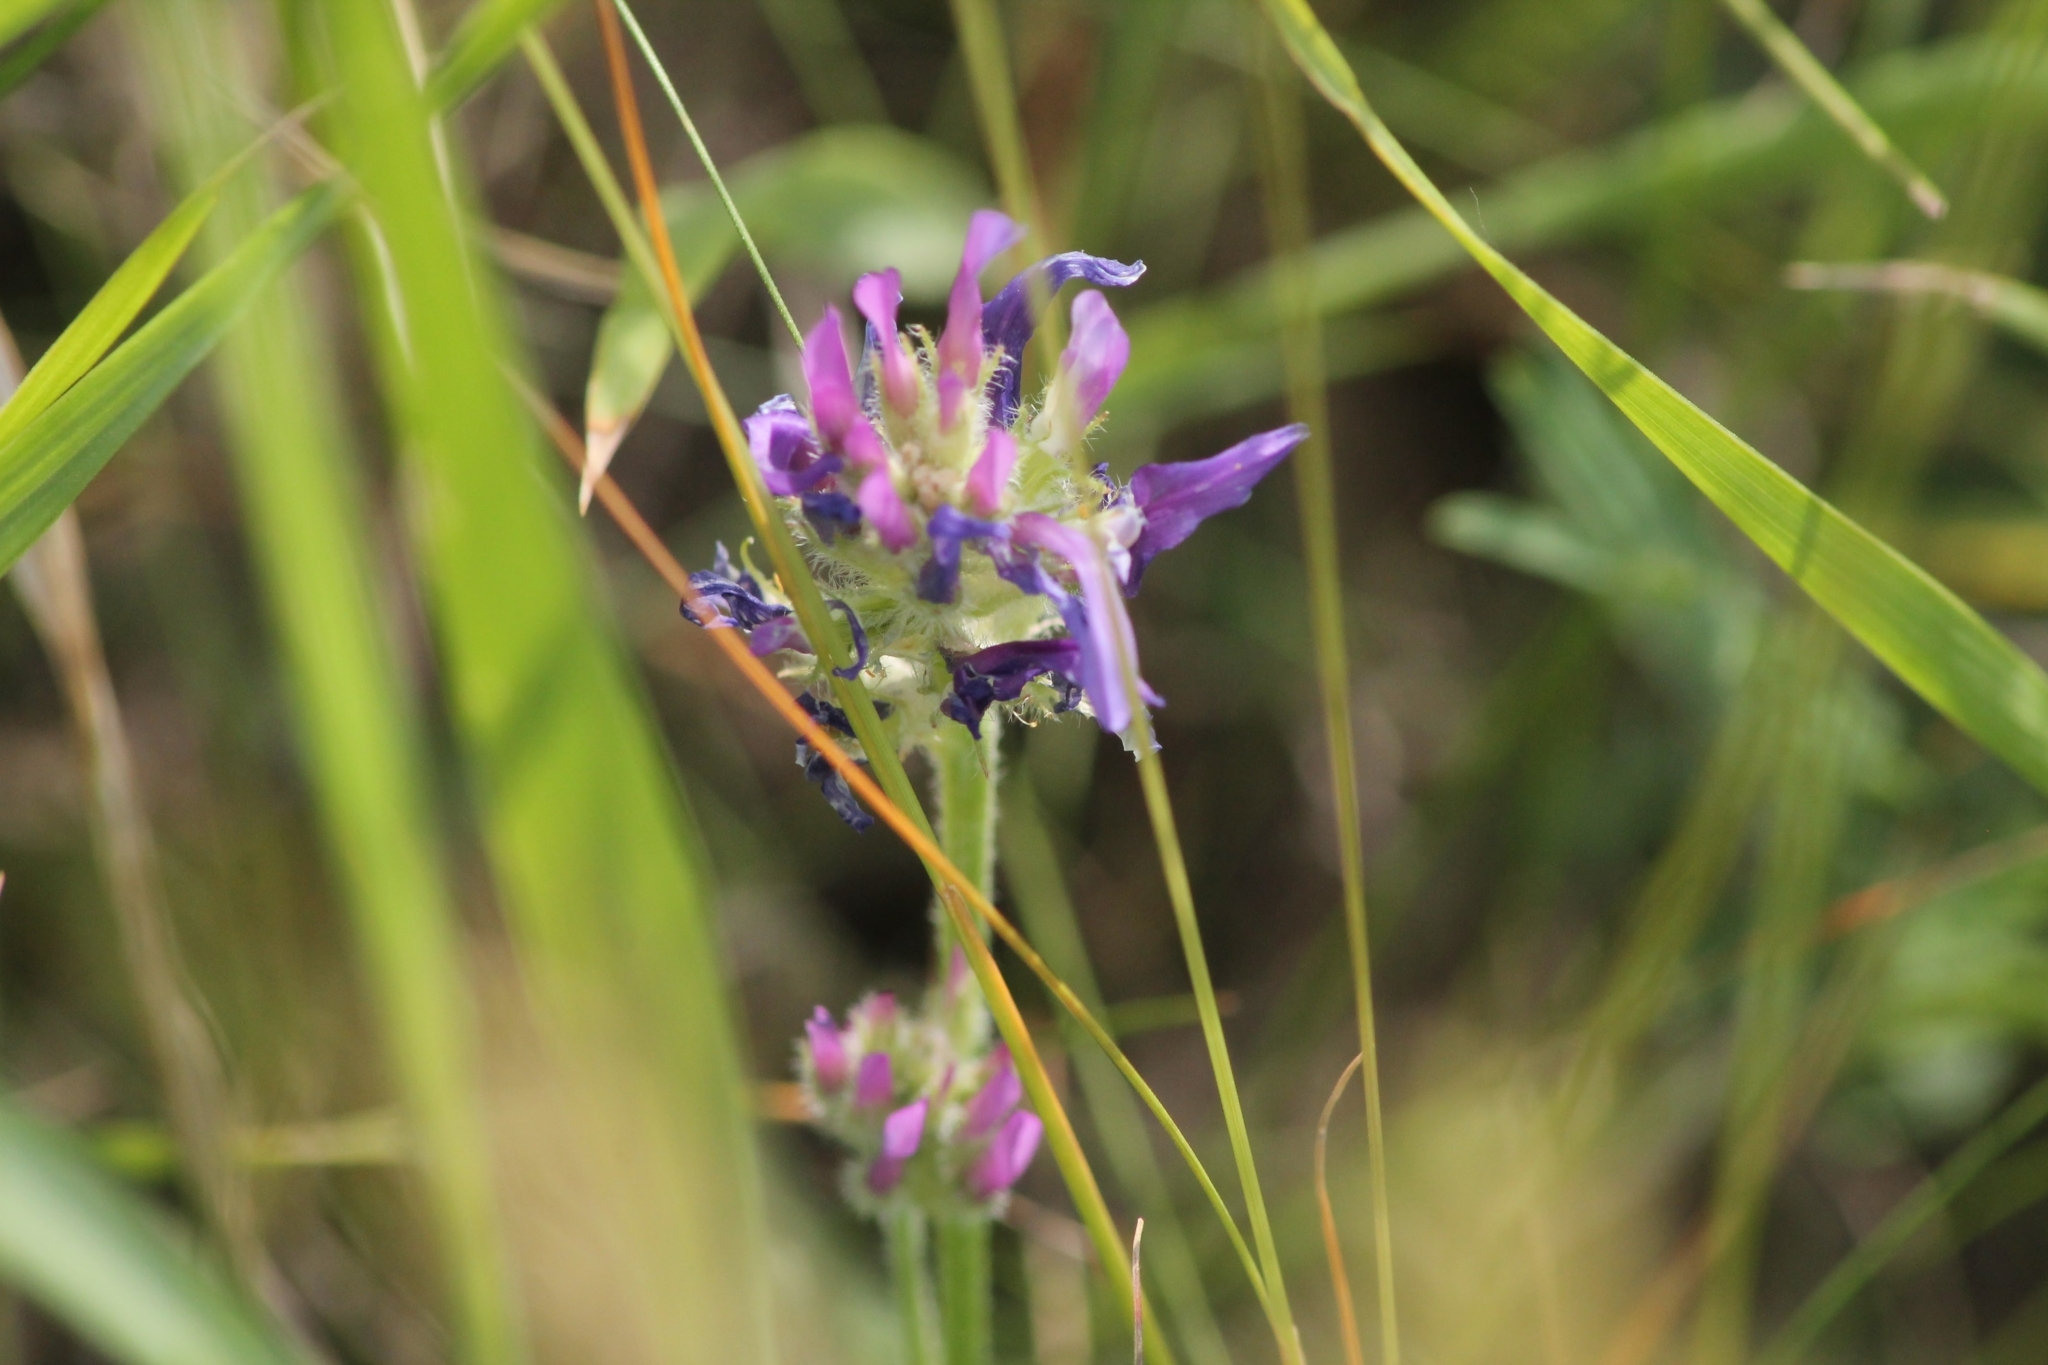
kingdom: Plantae
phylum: Tracheophyta
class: Magnoliopsida
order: Fabales
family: Fabaceae
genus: Astragalus
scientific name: Astragalus onobrychis
